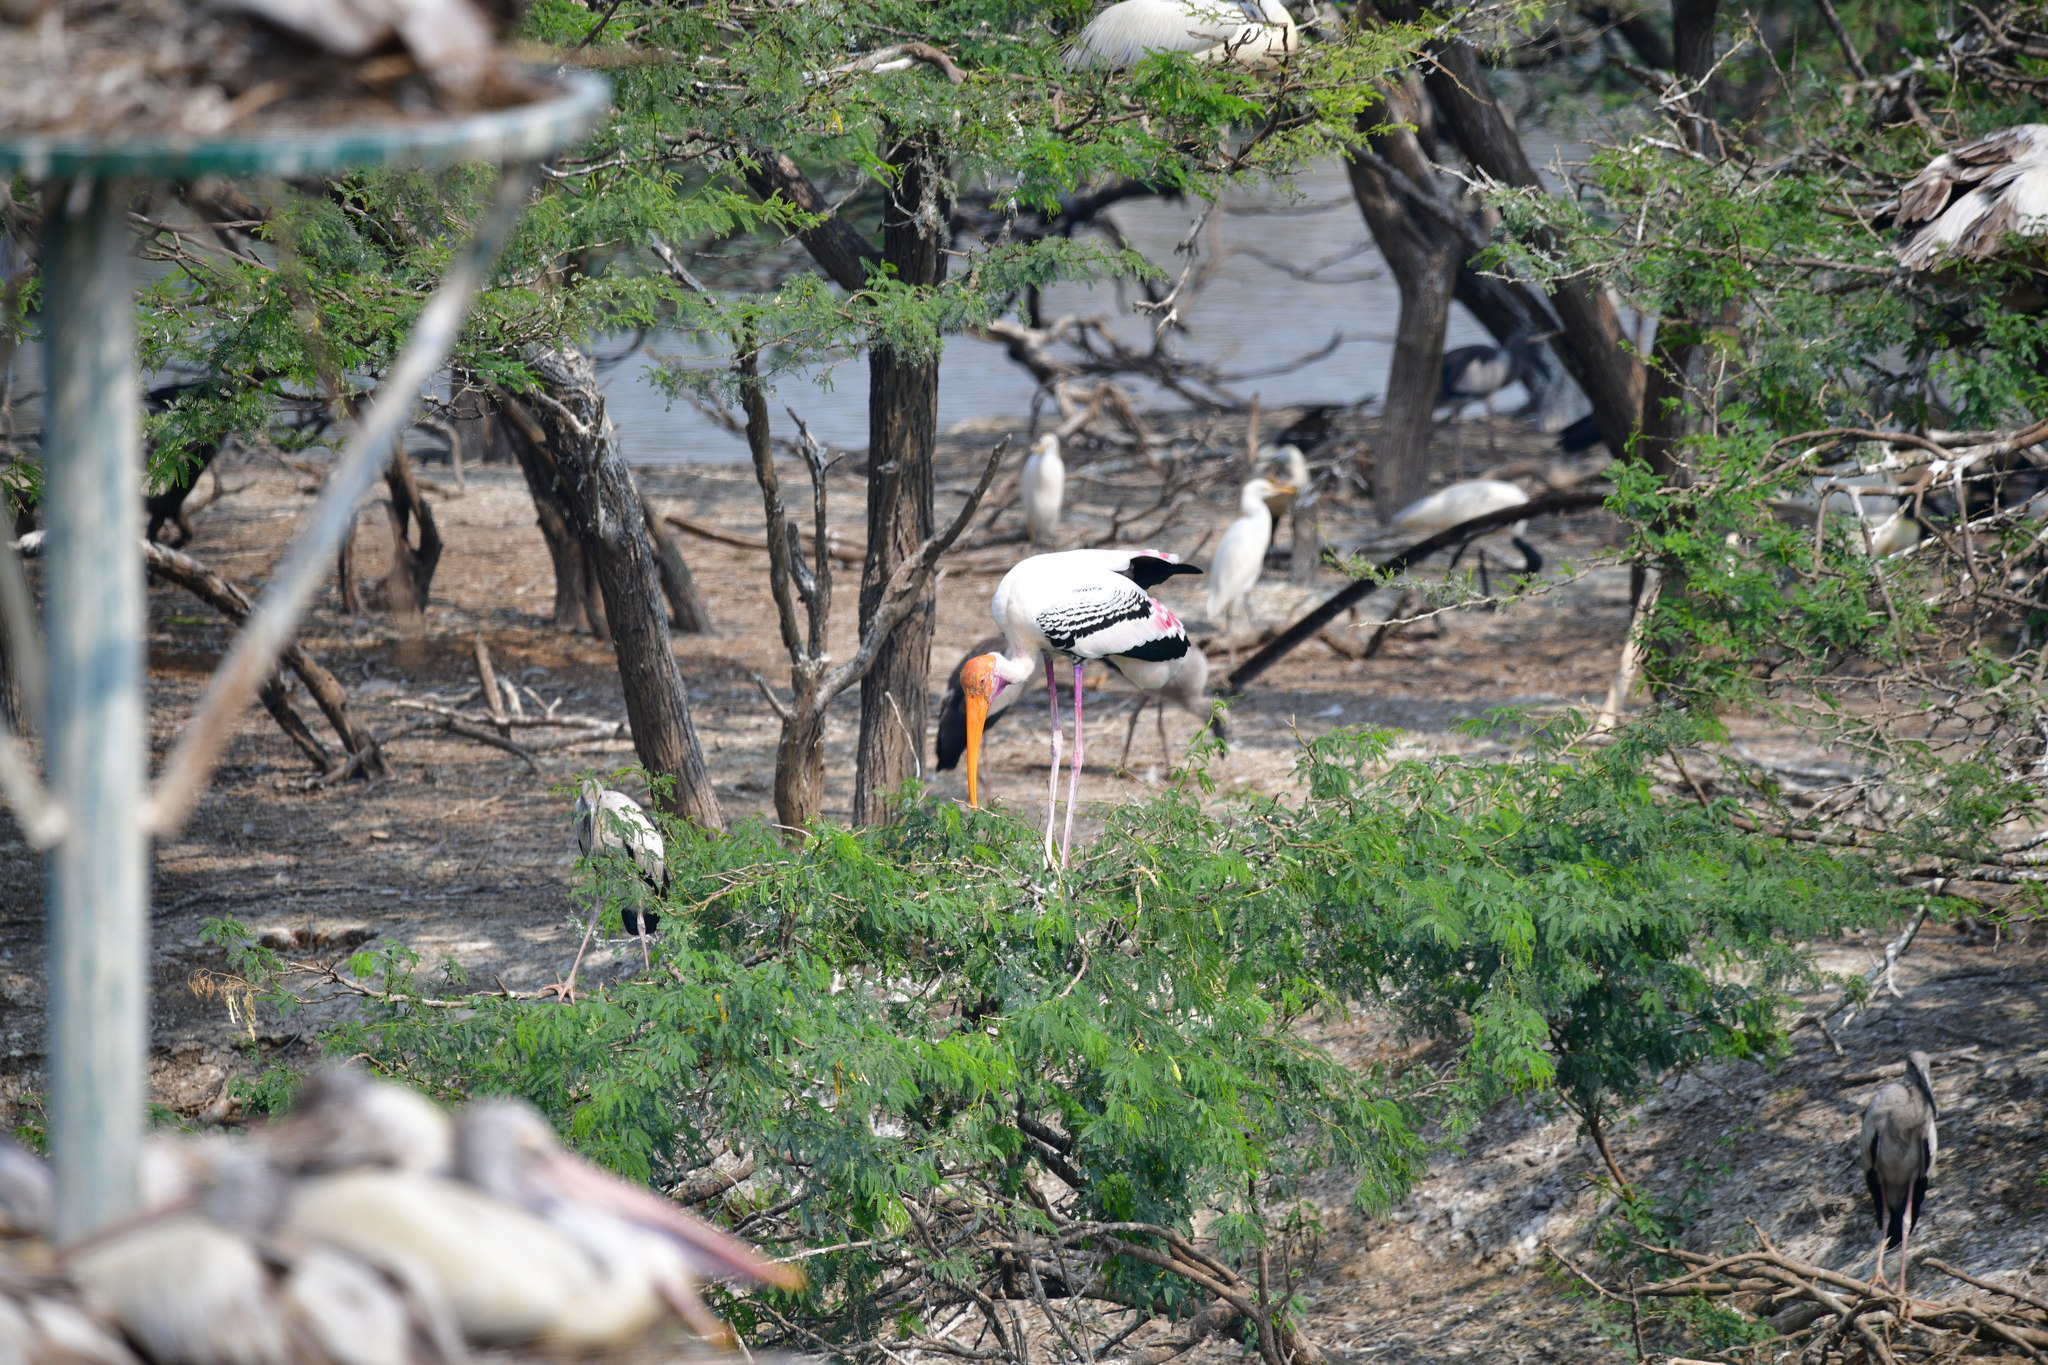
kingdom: Animalia
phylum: Chordata
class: Aves
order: Ciconiiformes
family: Ciconiidae
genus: Mycteria
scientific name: Mycteria leucocephala
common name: Painted stork
